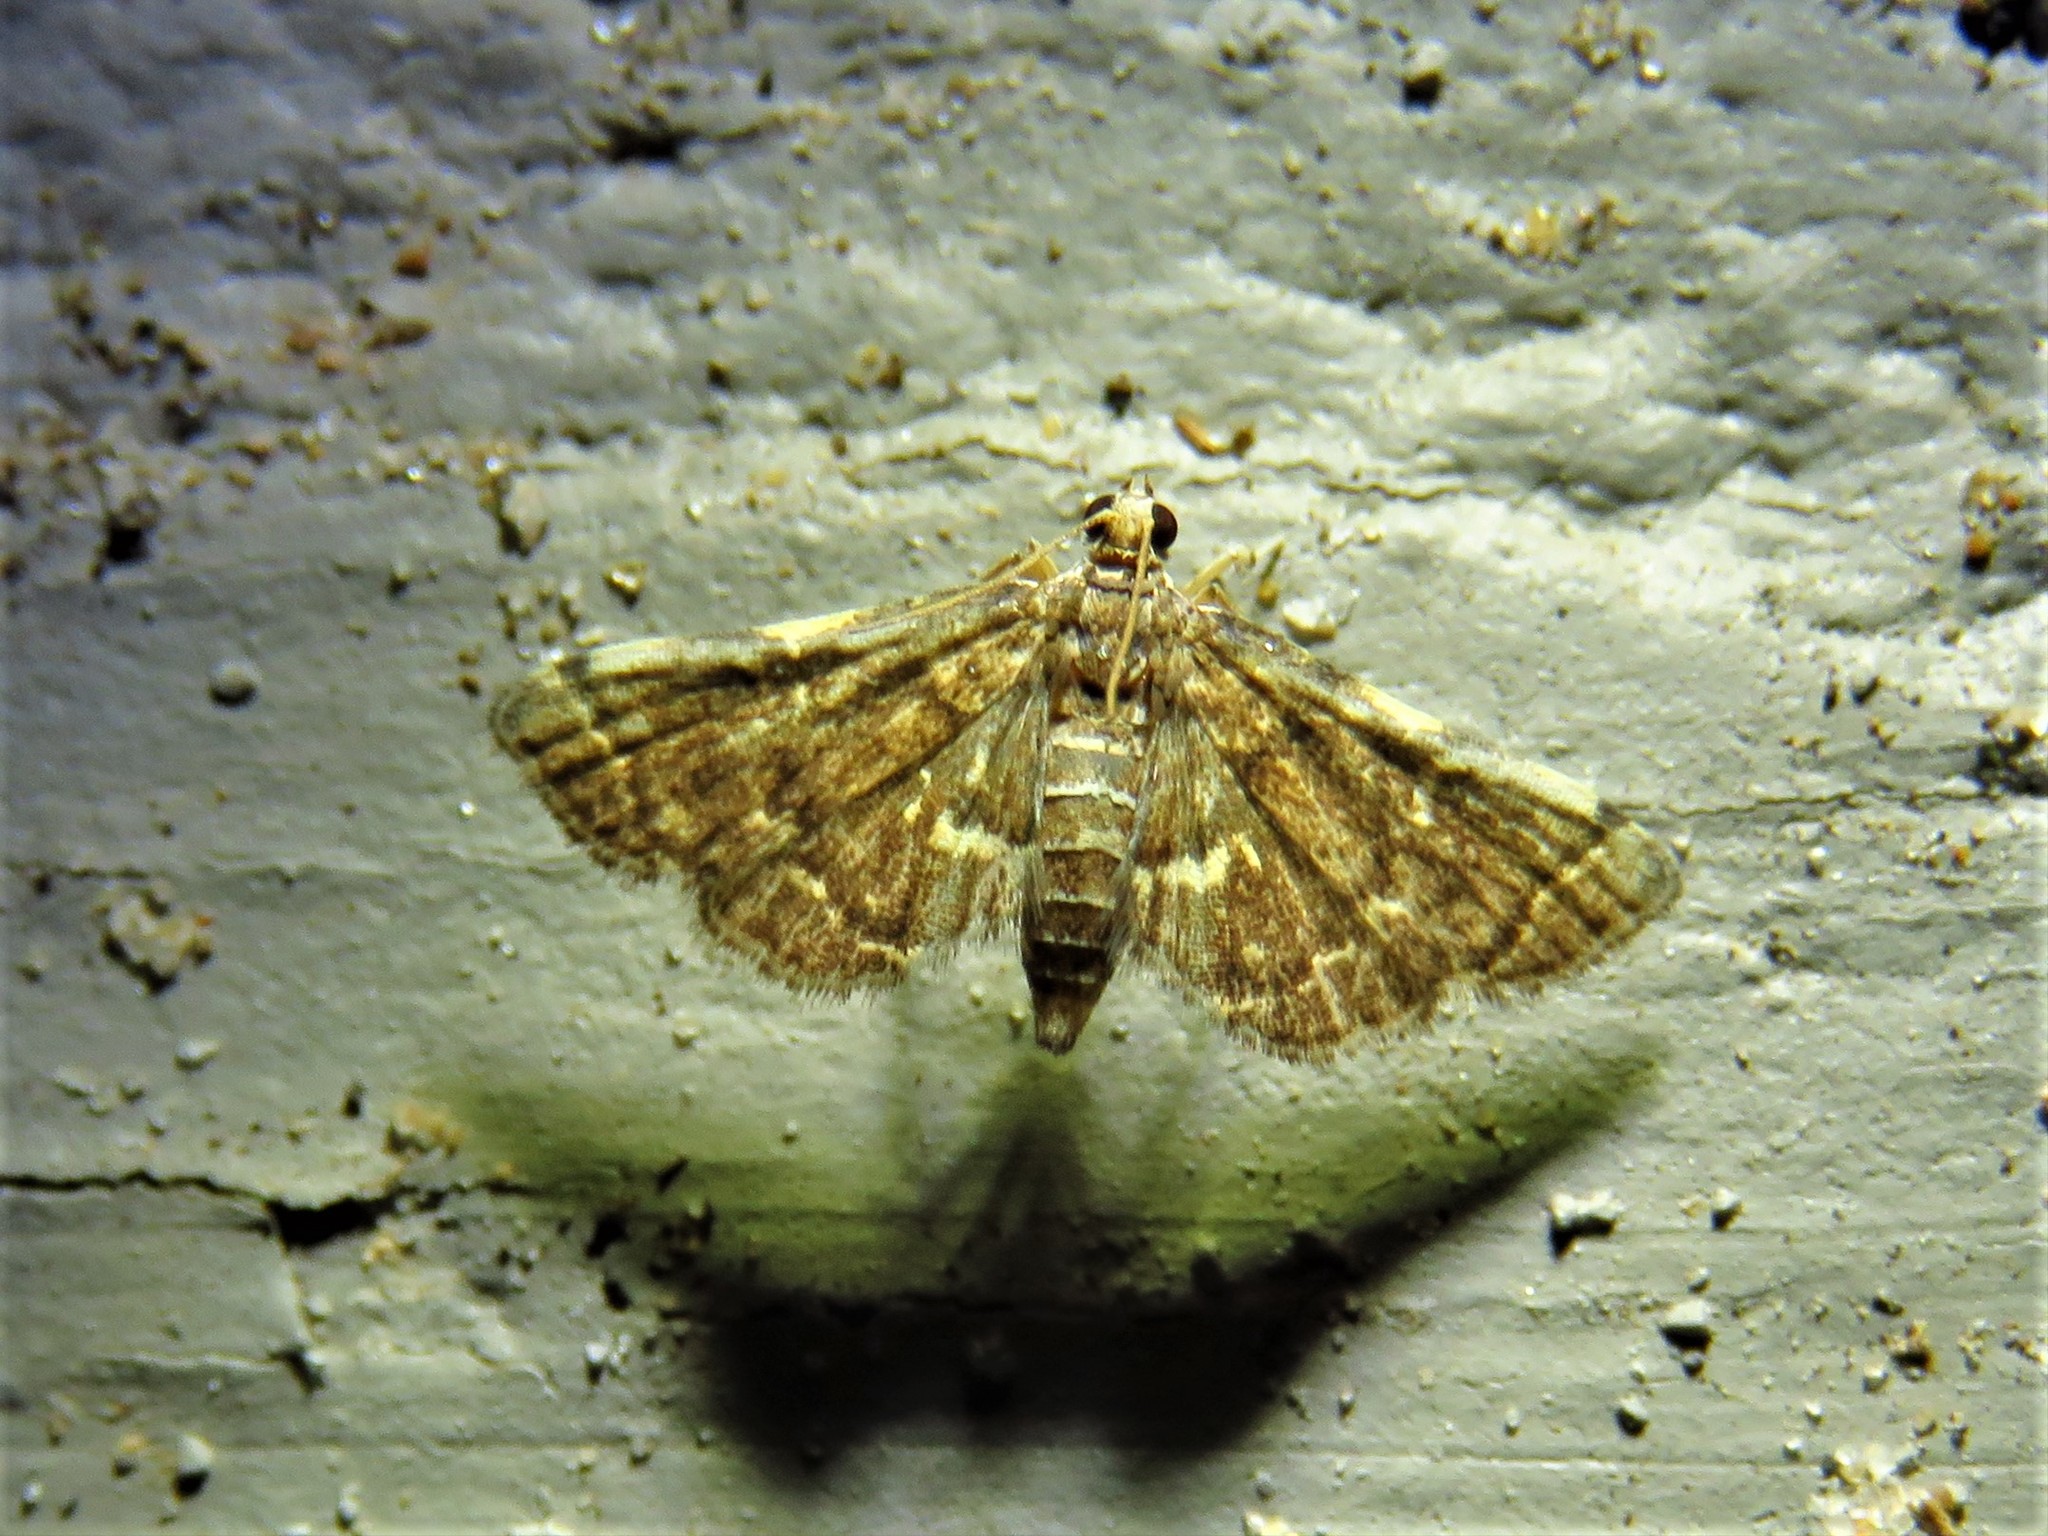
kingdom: Animalia
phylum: Arthropoda
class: Insecta
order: Lepidoptera
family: Crambidae
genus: Anageshna
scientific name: Anageshna primordialis
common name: Yellow-spotted webworm moth
